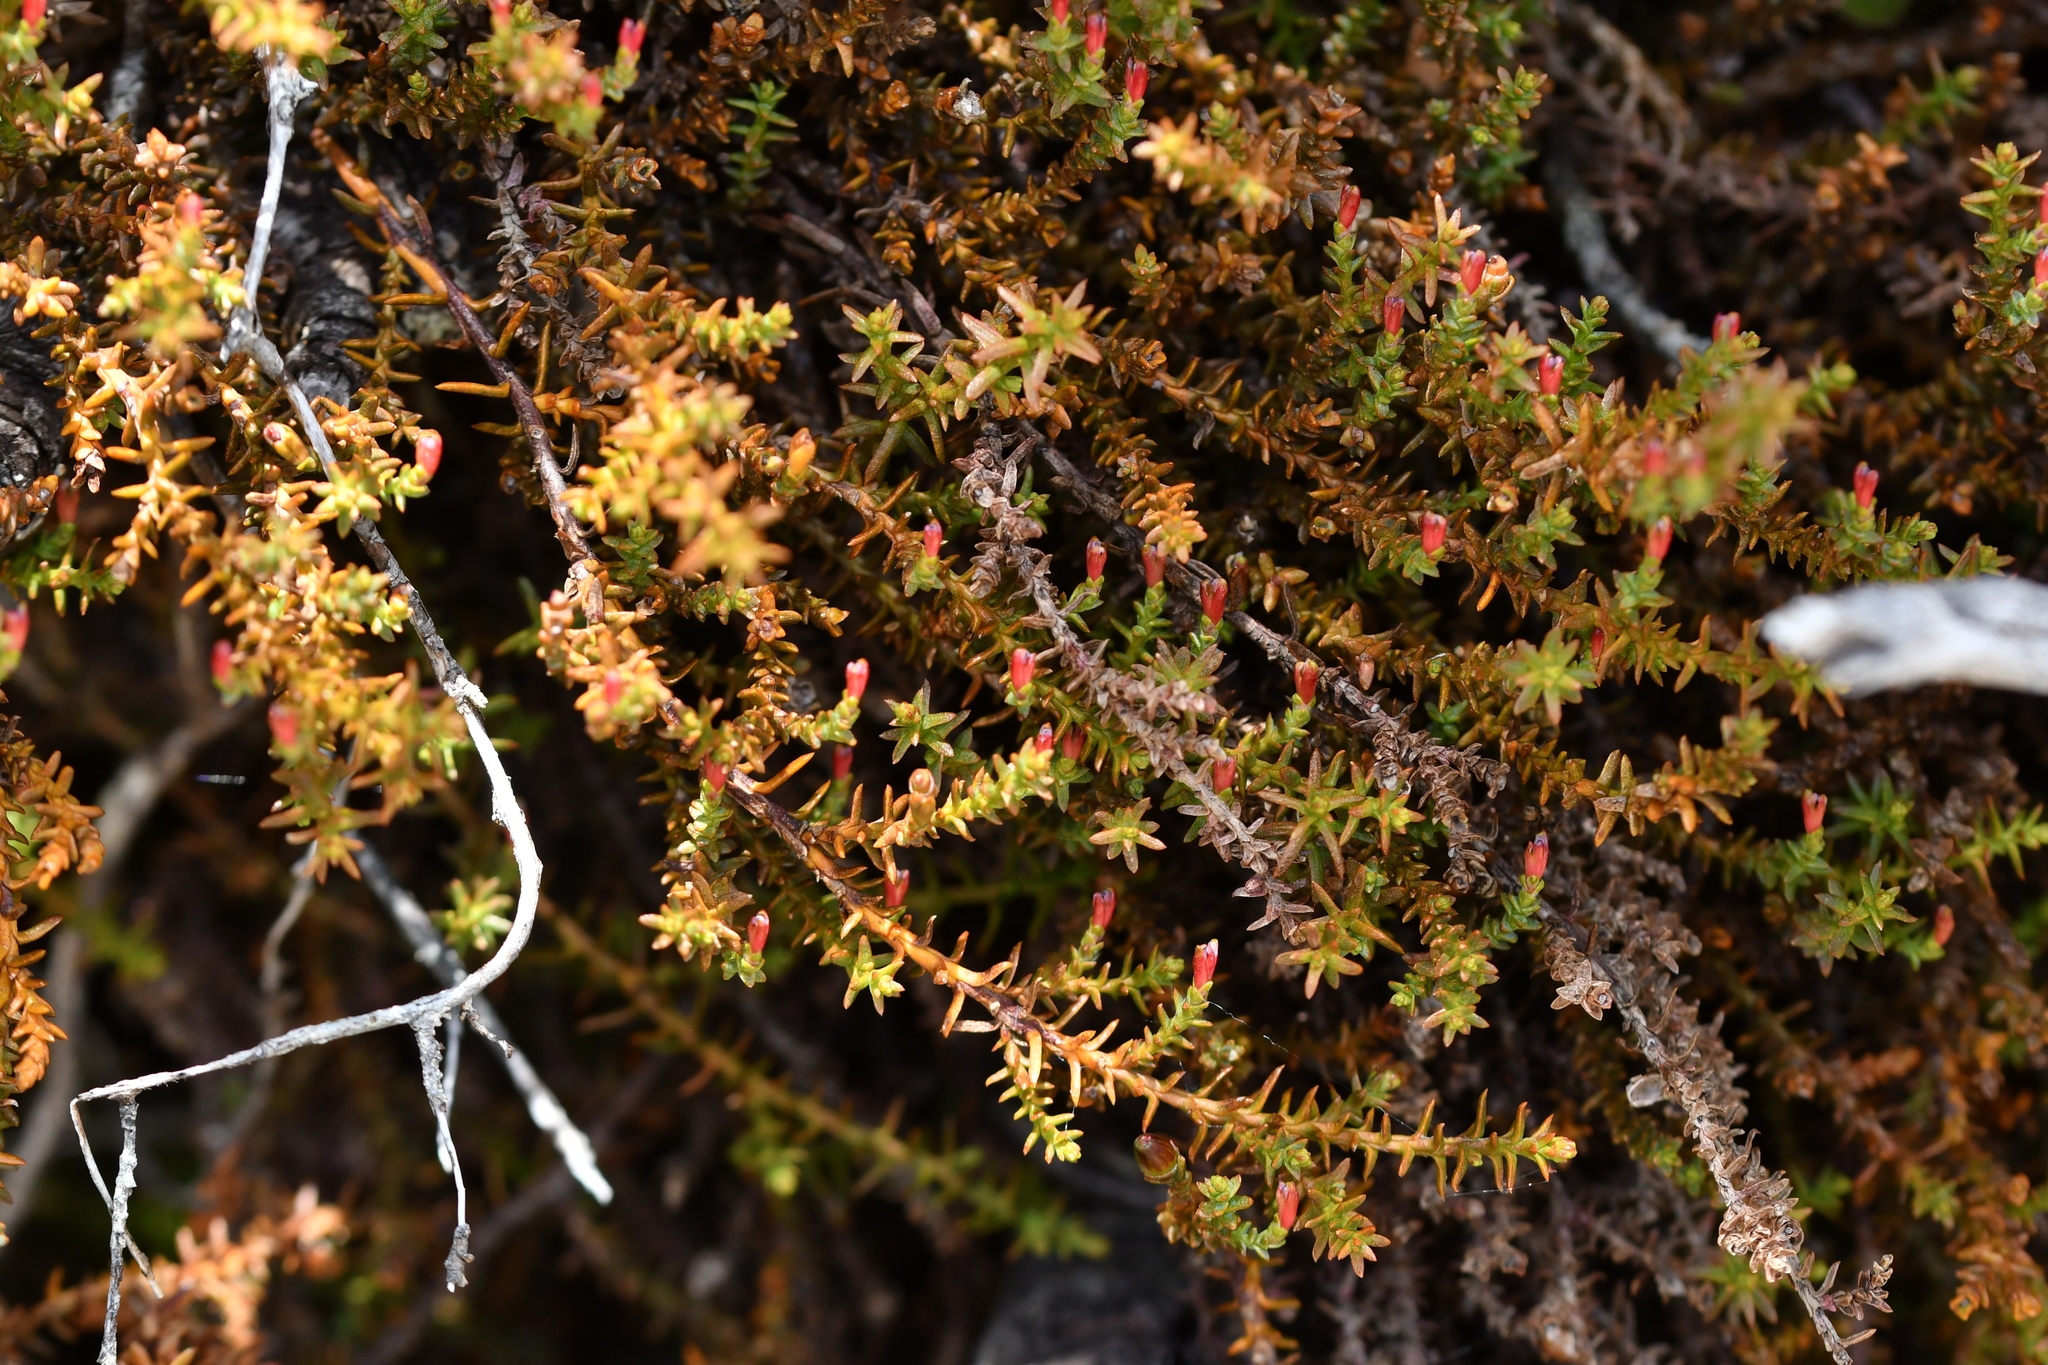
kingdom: Plantae
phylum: Tracheophyta
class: Pinopsida
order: Pinales
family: Podocarpaceae
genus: Lepidothamnus
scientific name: Lepidothamnus laxifolius
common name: Pygmy pine
